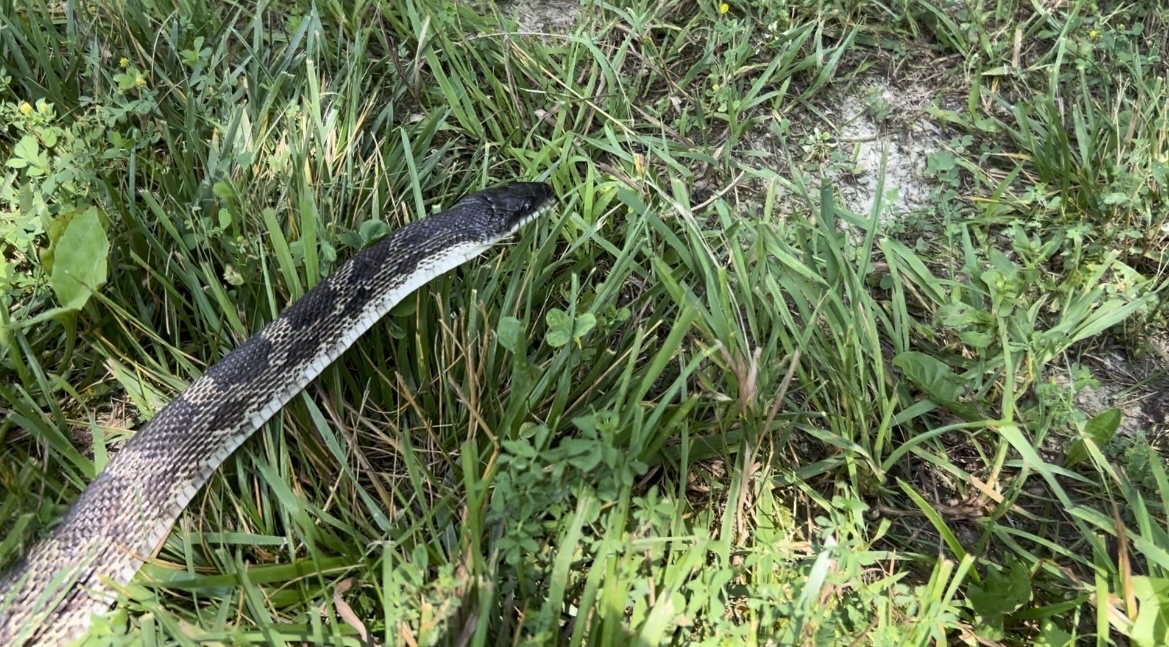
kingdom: Animalia
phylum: Chordata
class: Squamata
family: Colubridae
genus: Pantherophis
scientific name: Pantherophis spiloides
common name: Gray rat snake
